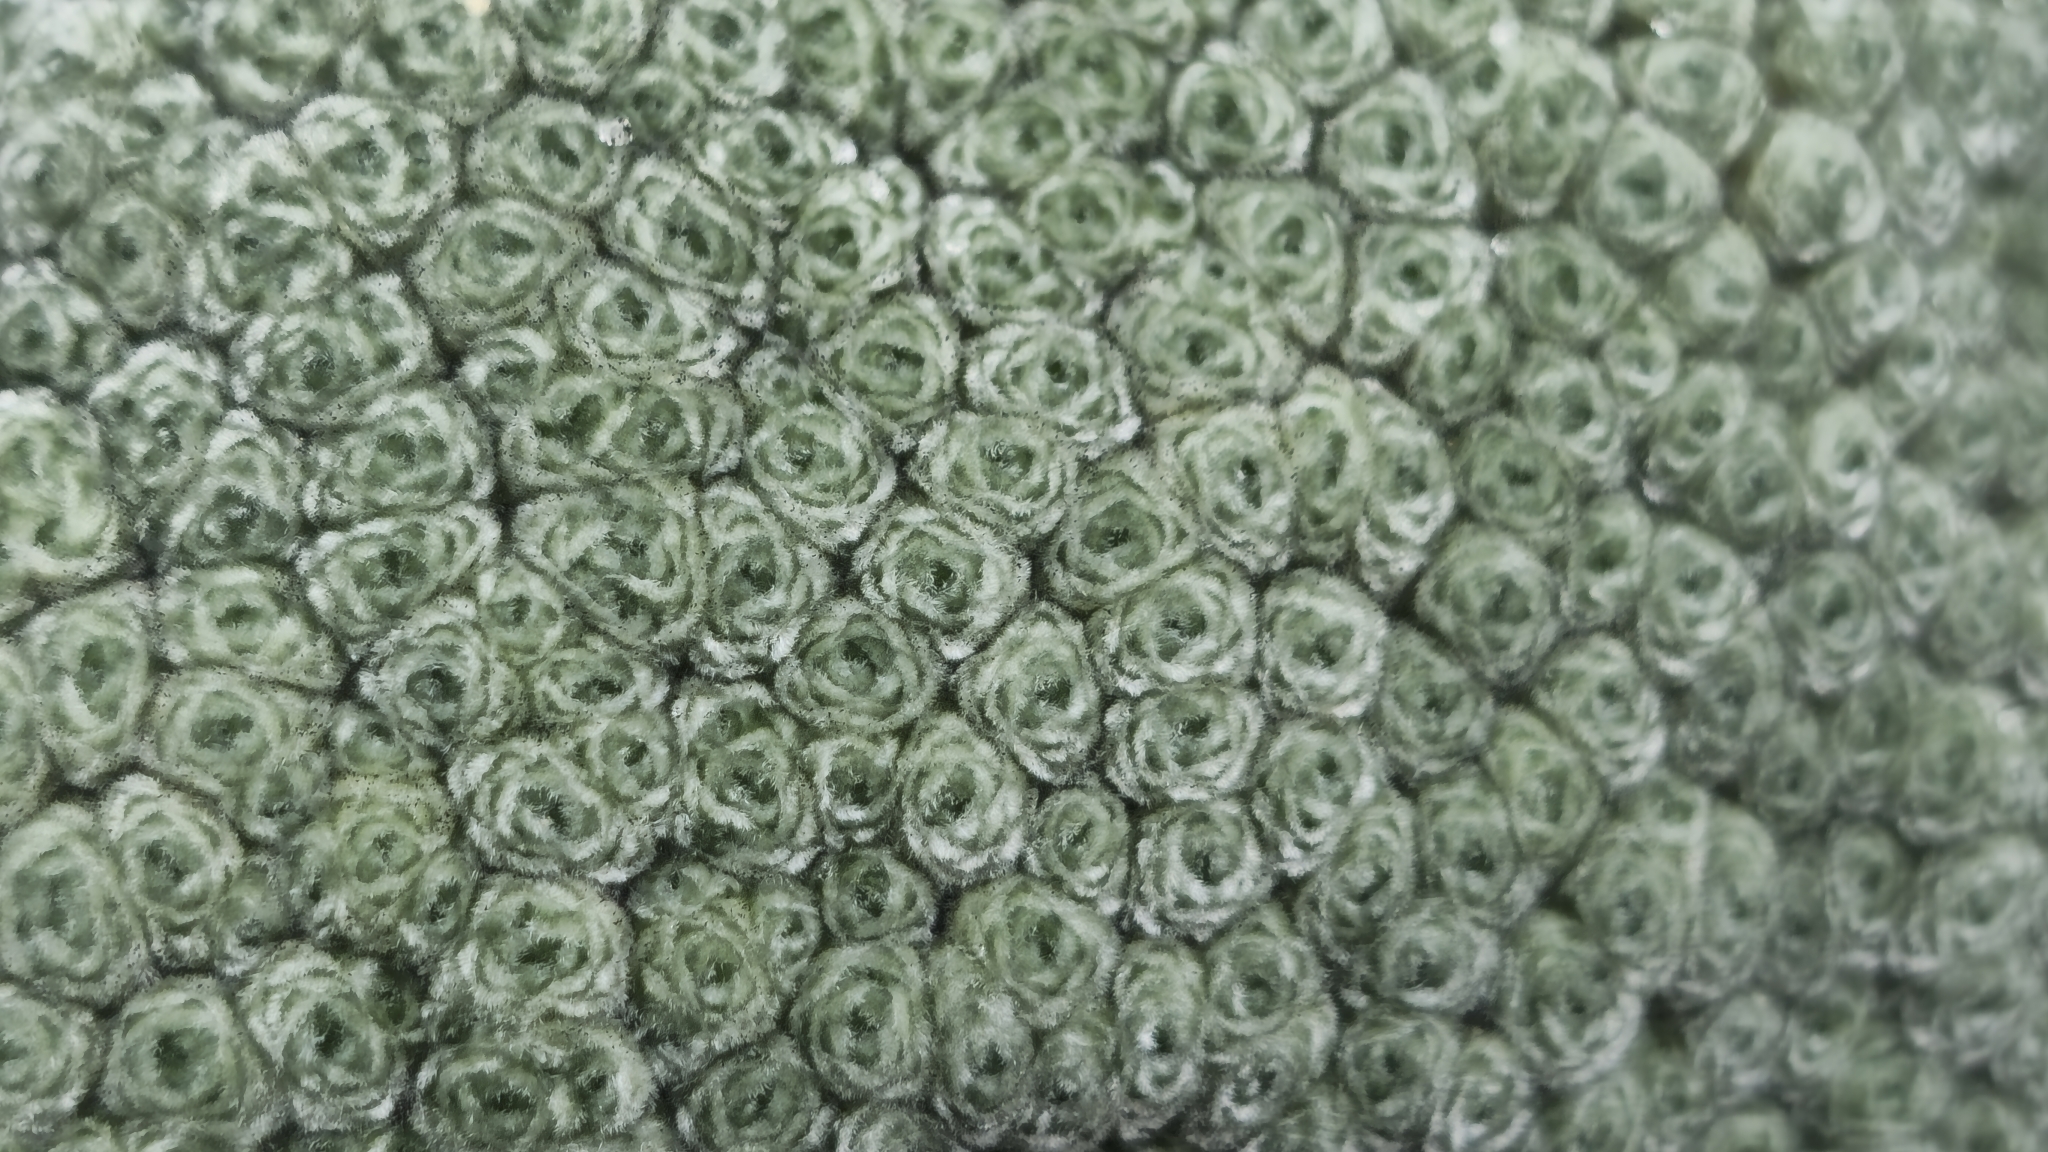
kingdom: Plantae
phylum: Tracheophyta
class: Magnoliopsida
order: Asterales
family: Asteraceae
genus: Raoulia
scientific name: Raoulia eximia
